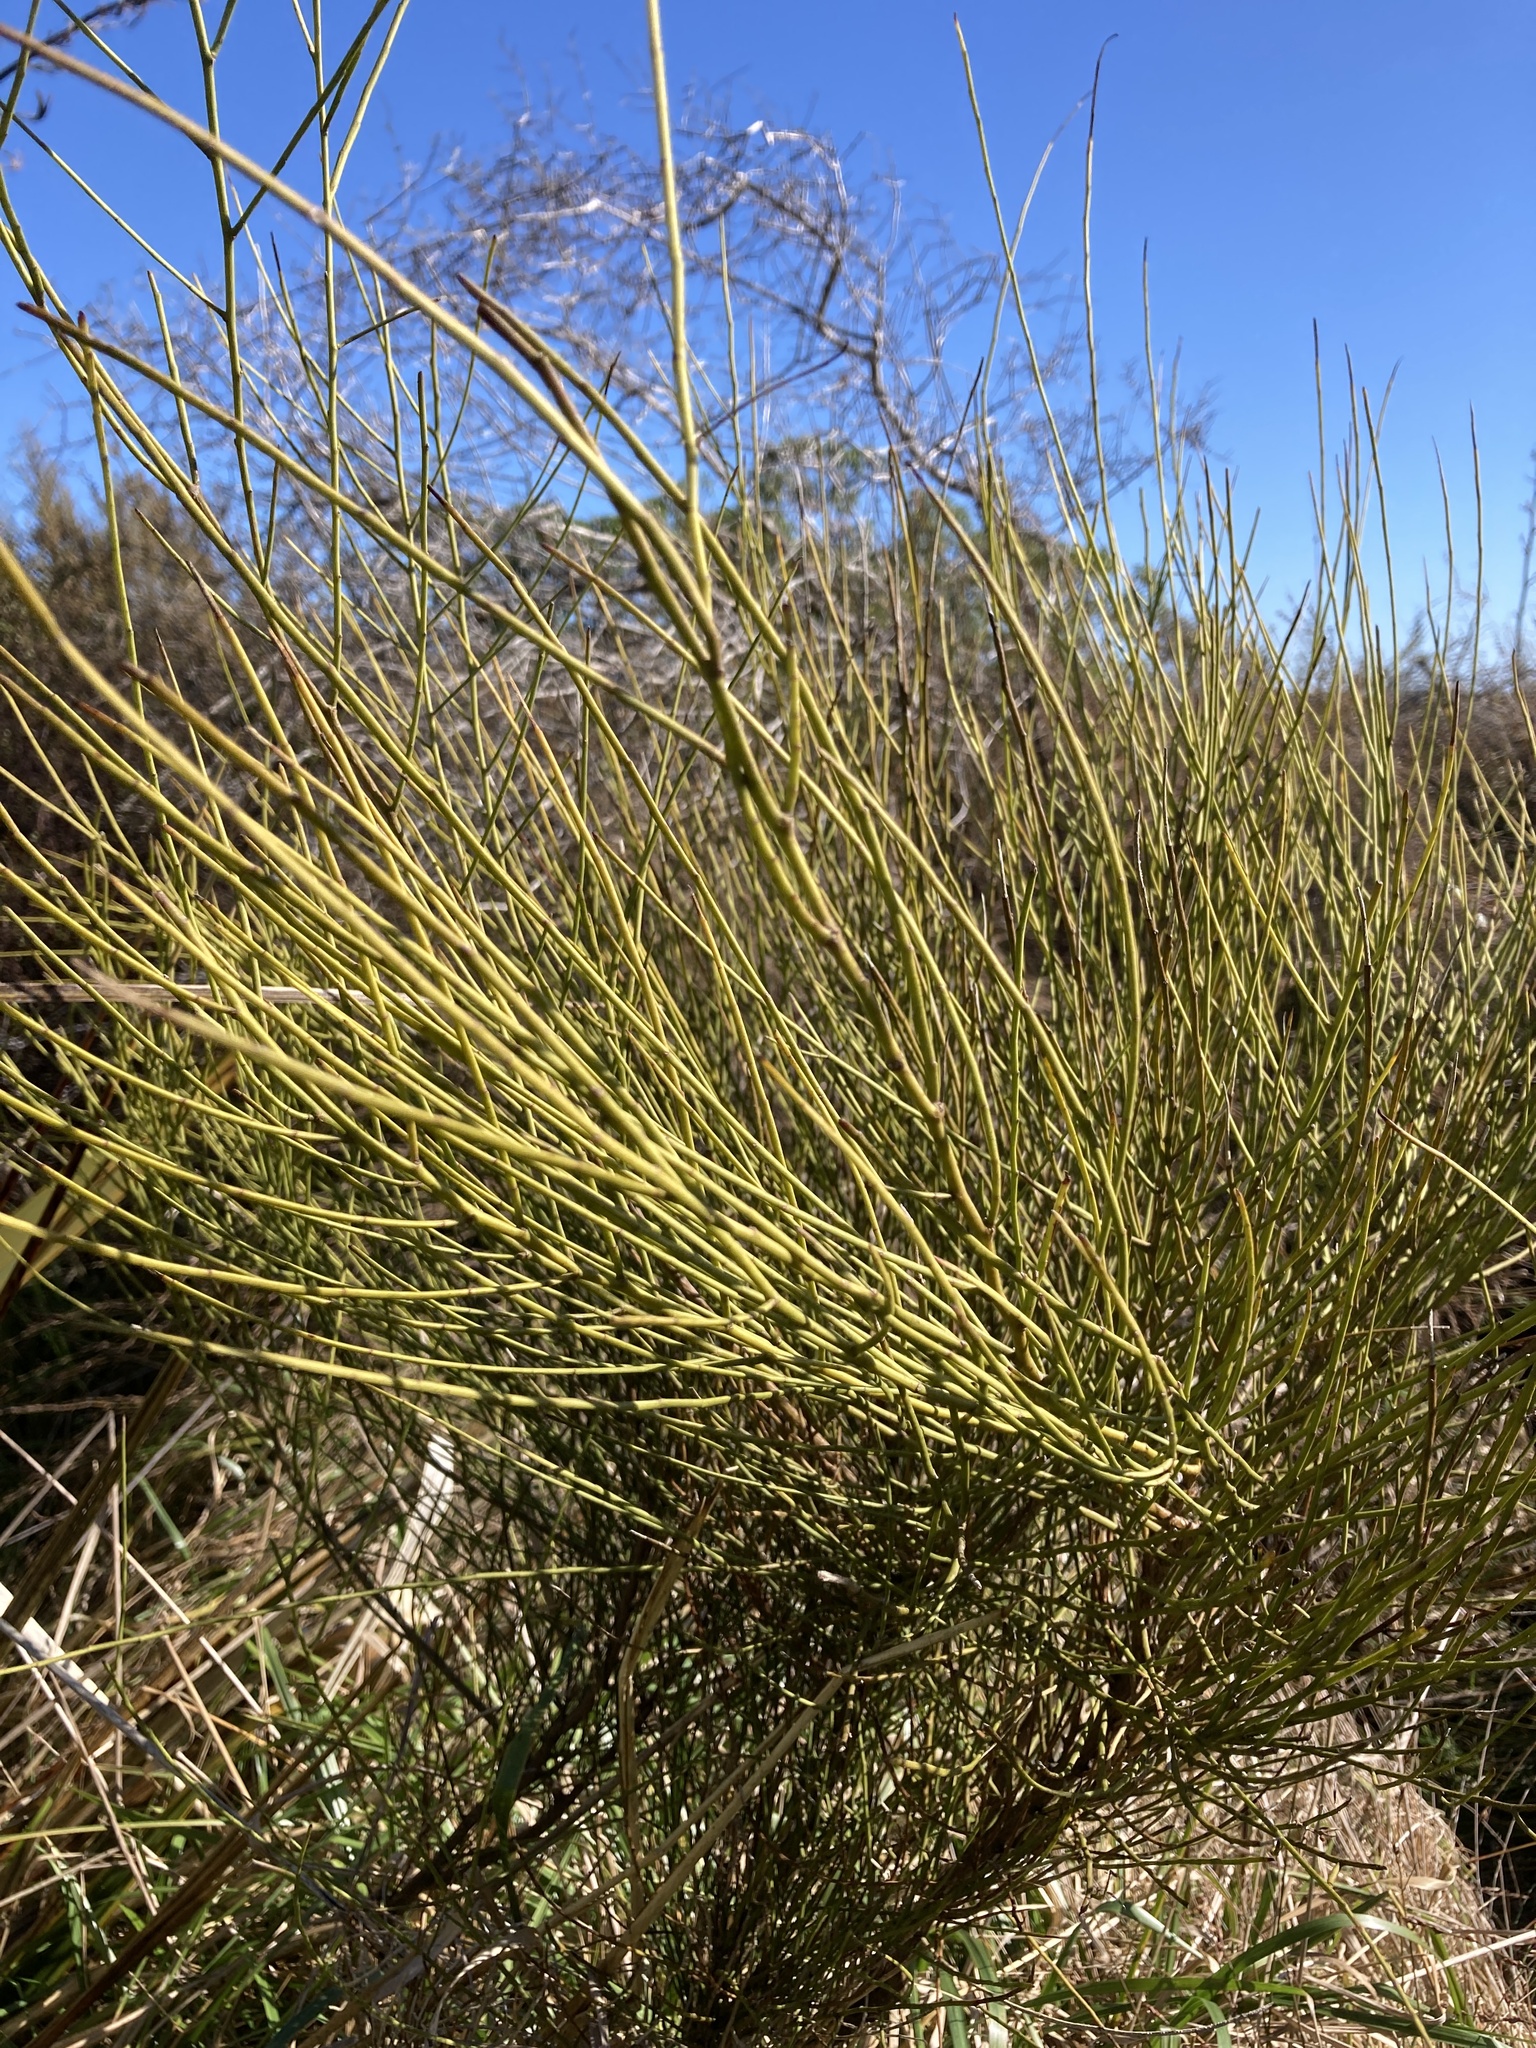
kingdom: Plantae
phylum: Tracheophyta
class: Magnoliopsida
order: Fabales
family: Fabaceae
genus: Carmichaelia
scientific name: Carmichaelia australis
